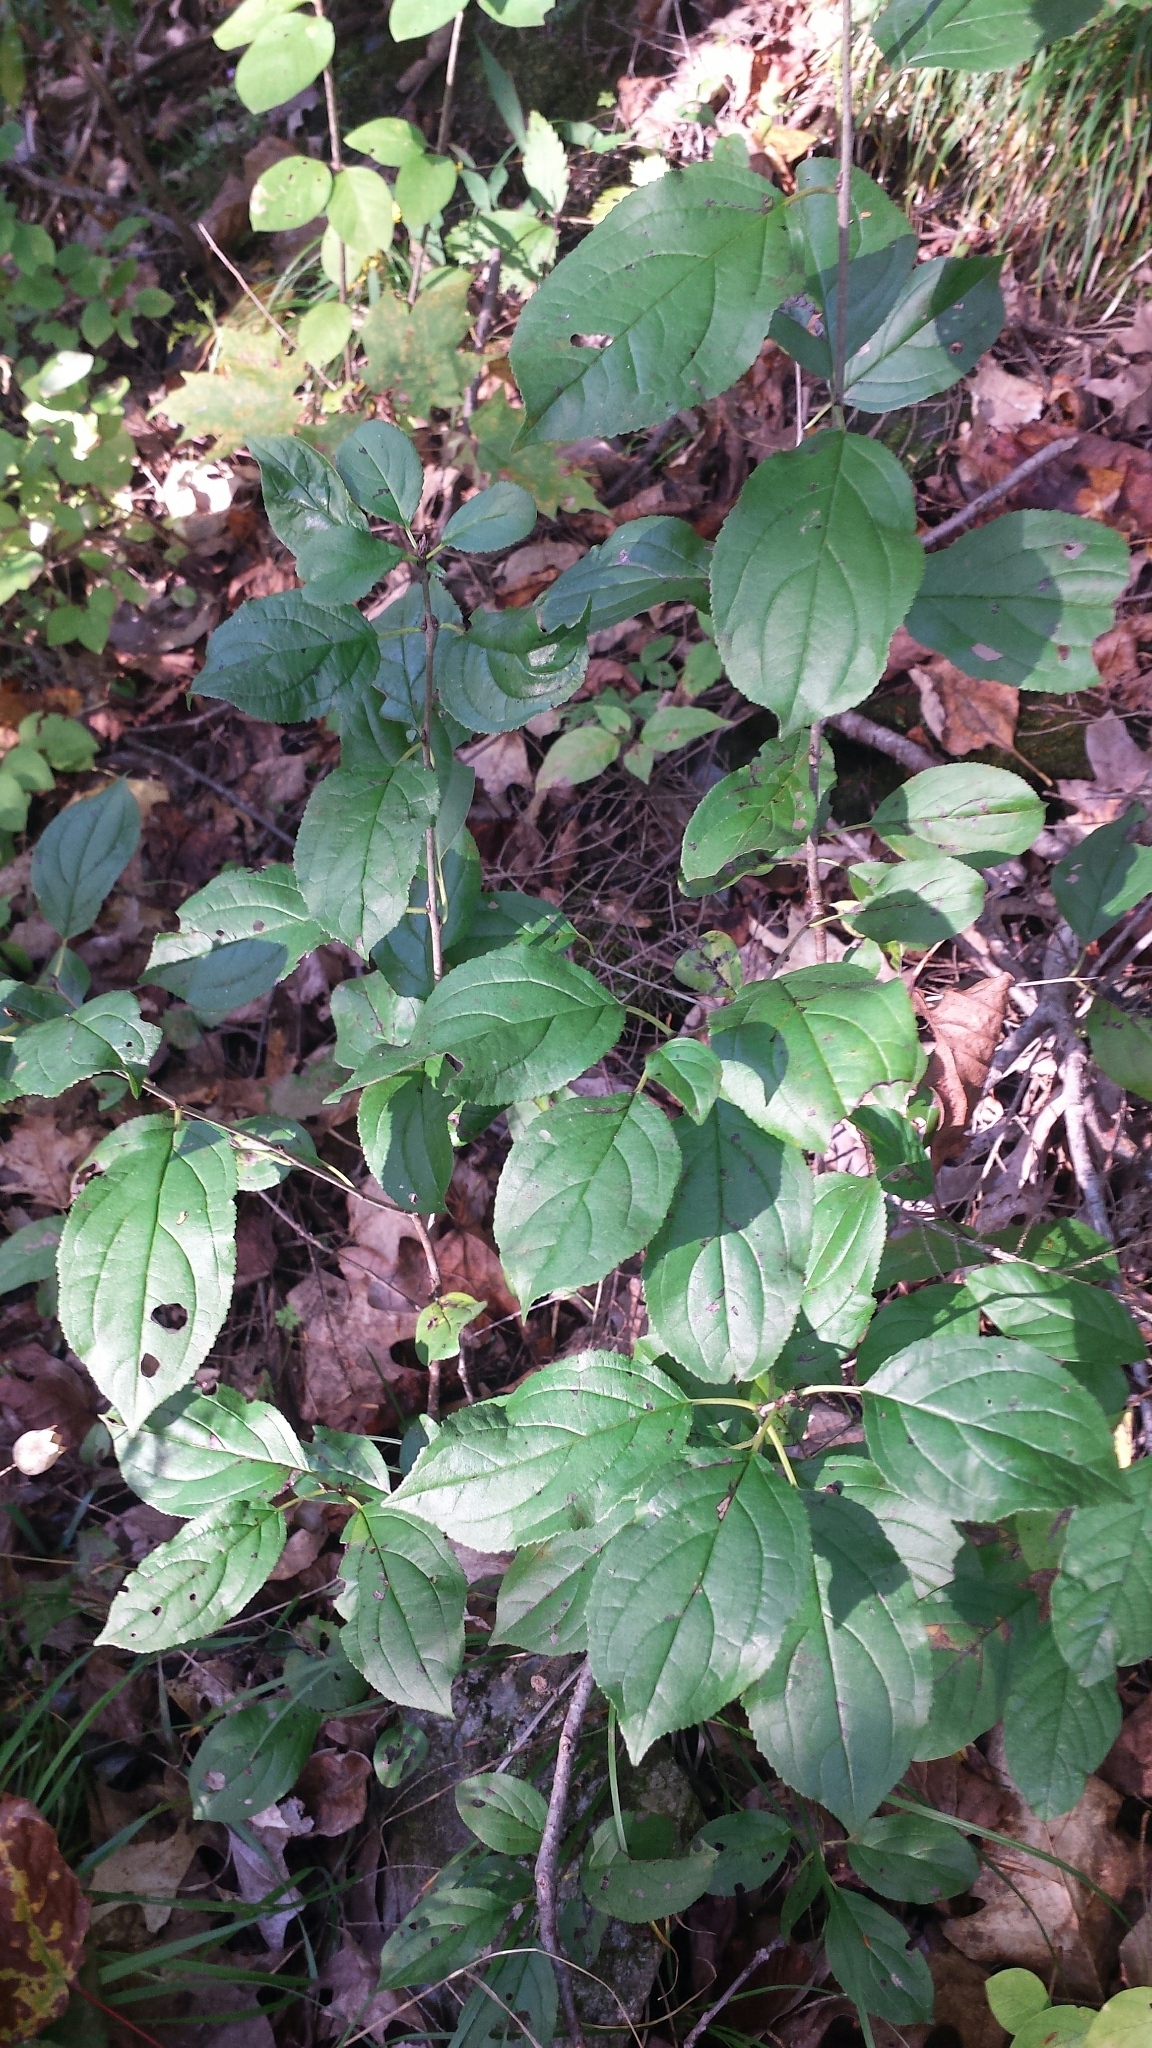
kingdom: Plantae
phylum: Tracheophyta
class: Magnoliopsida
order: Rosales
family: Rhamnaceae
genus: Rhamnus
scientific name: Rhamnus cathartica
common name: Common buckthorn
